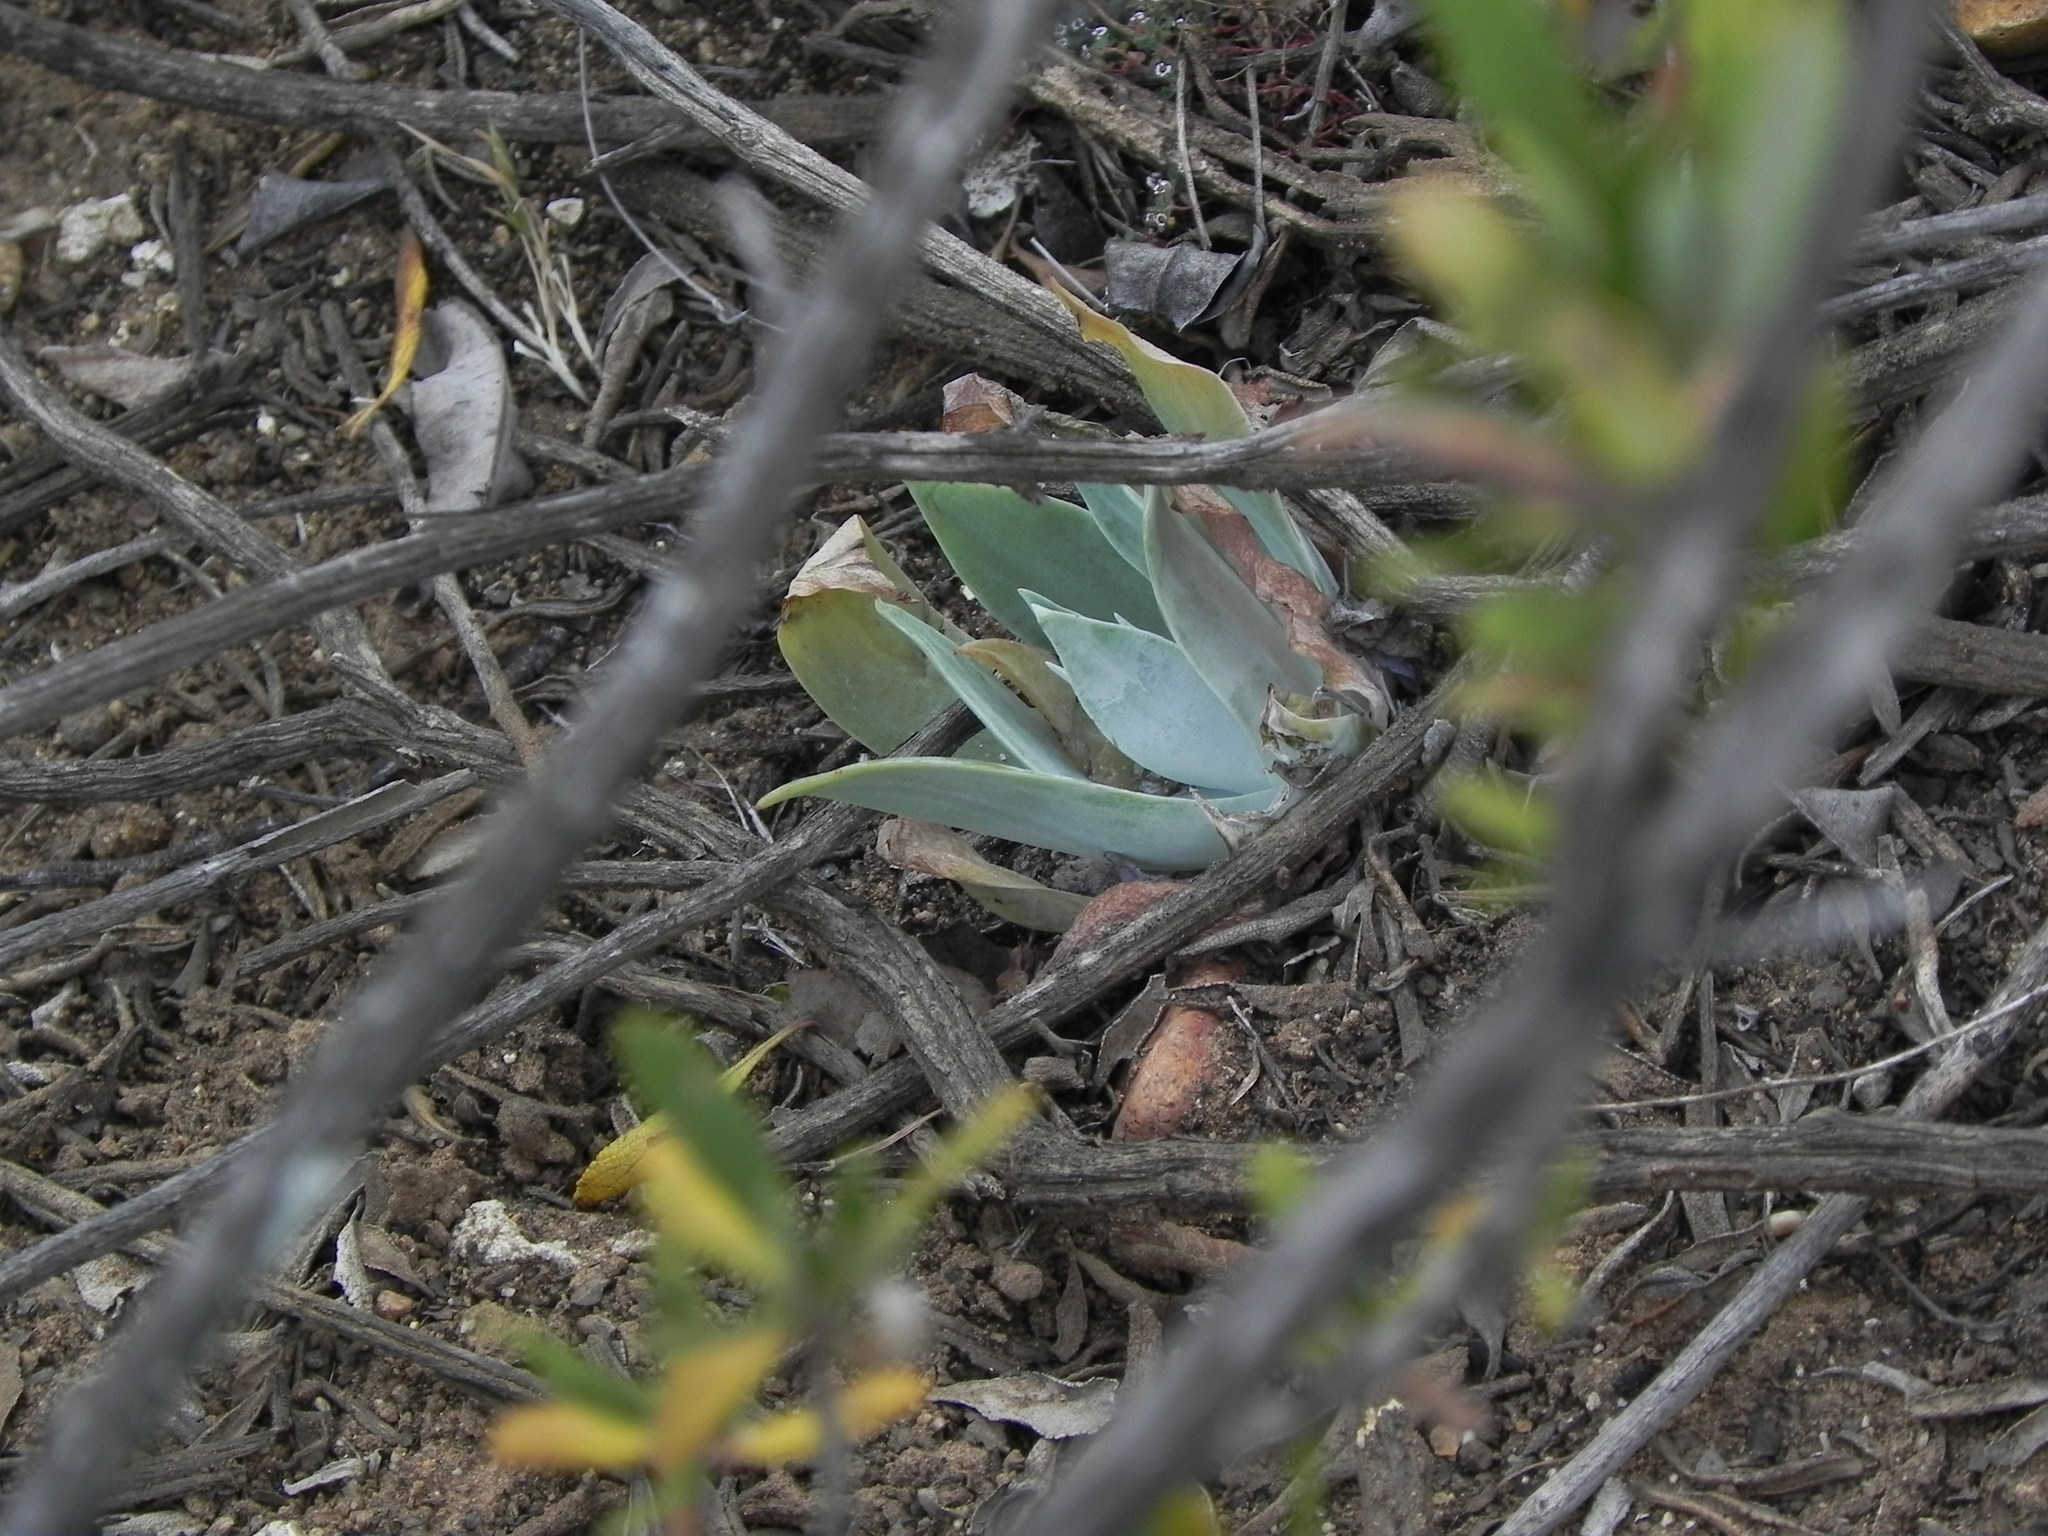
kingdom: Plantae
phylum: Tracheophyta
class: Magnoliopsida
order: Saxifragales
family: Crassulaceae
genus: Dudleya
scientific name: Dudleya pulverulenta
